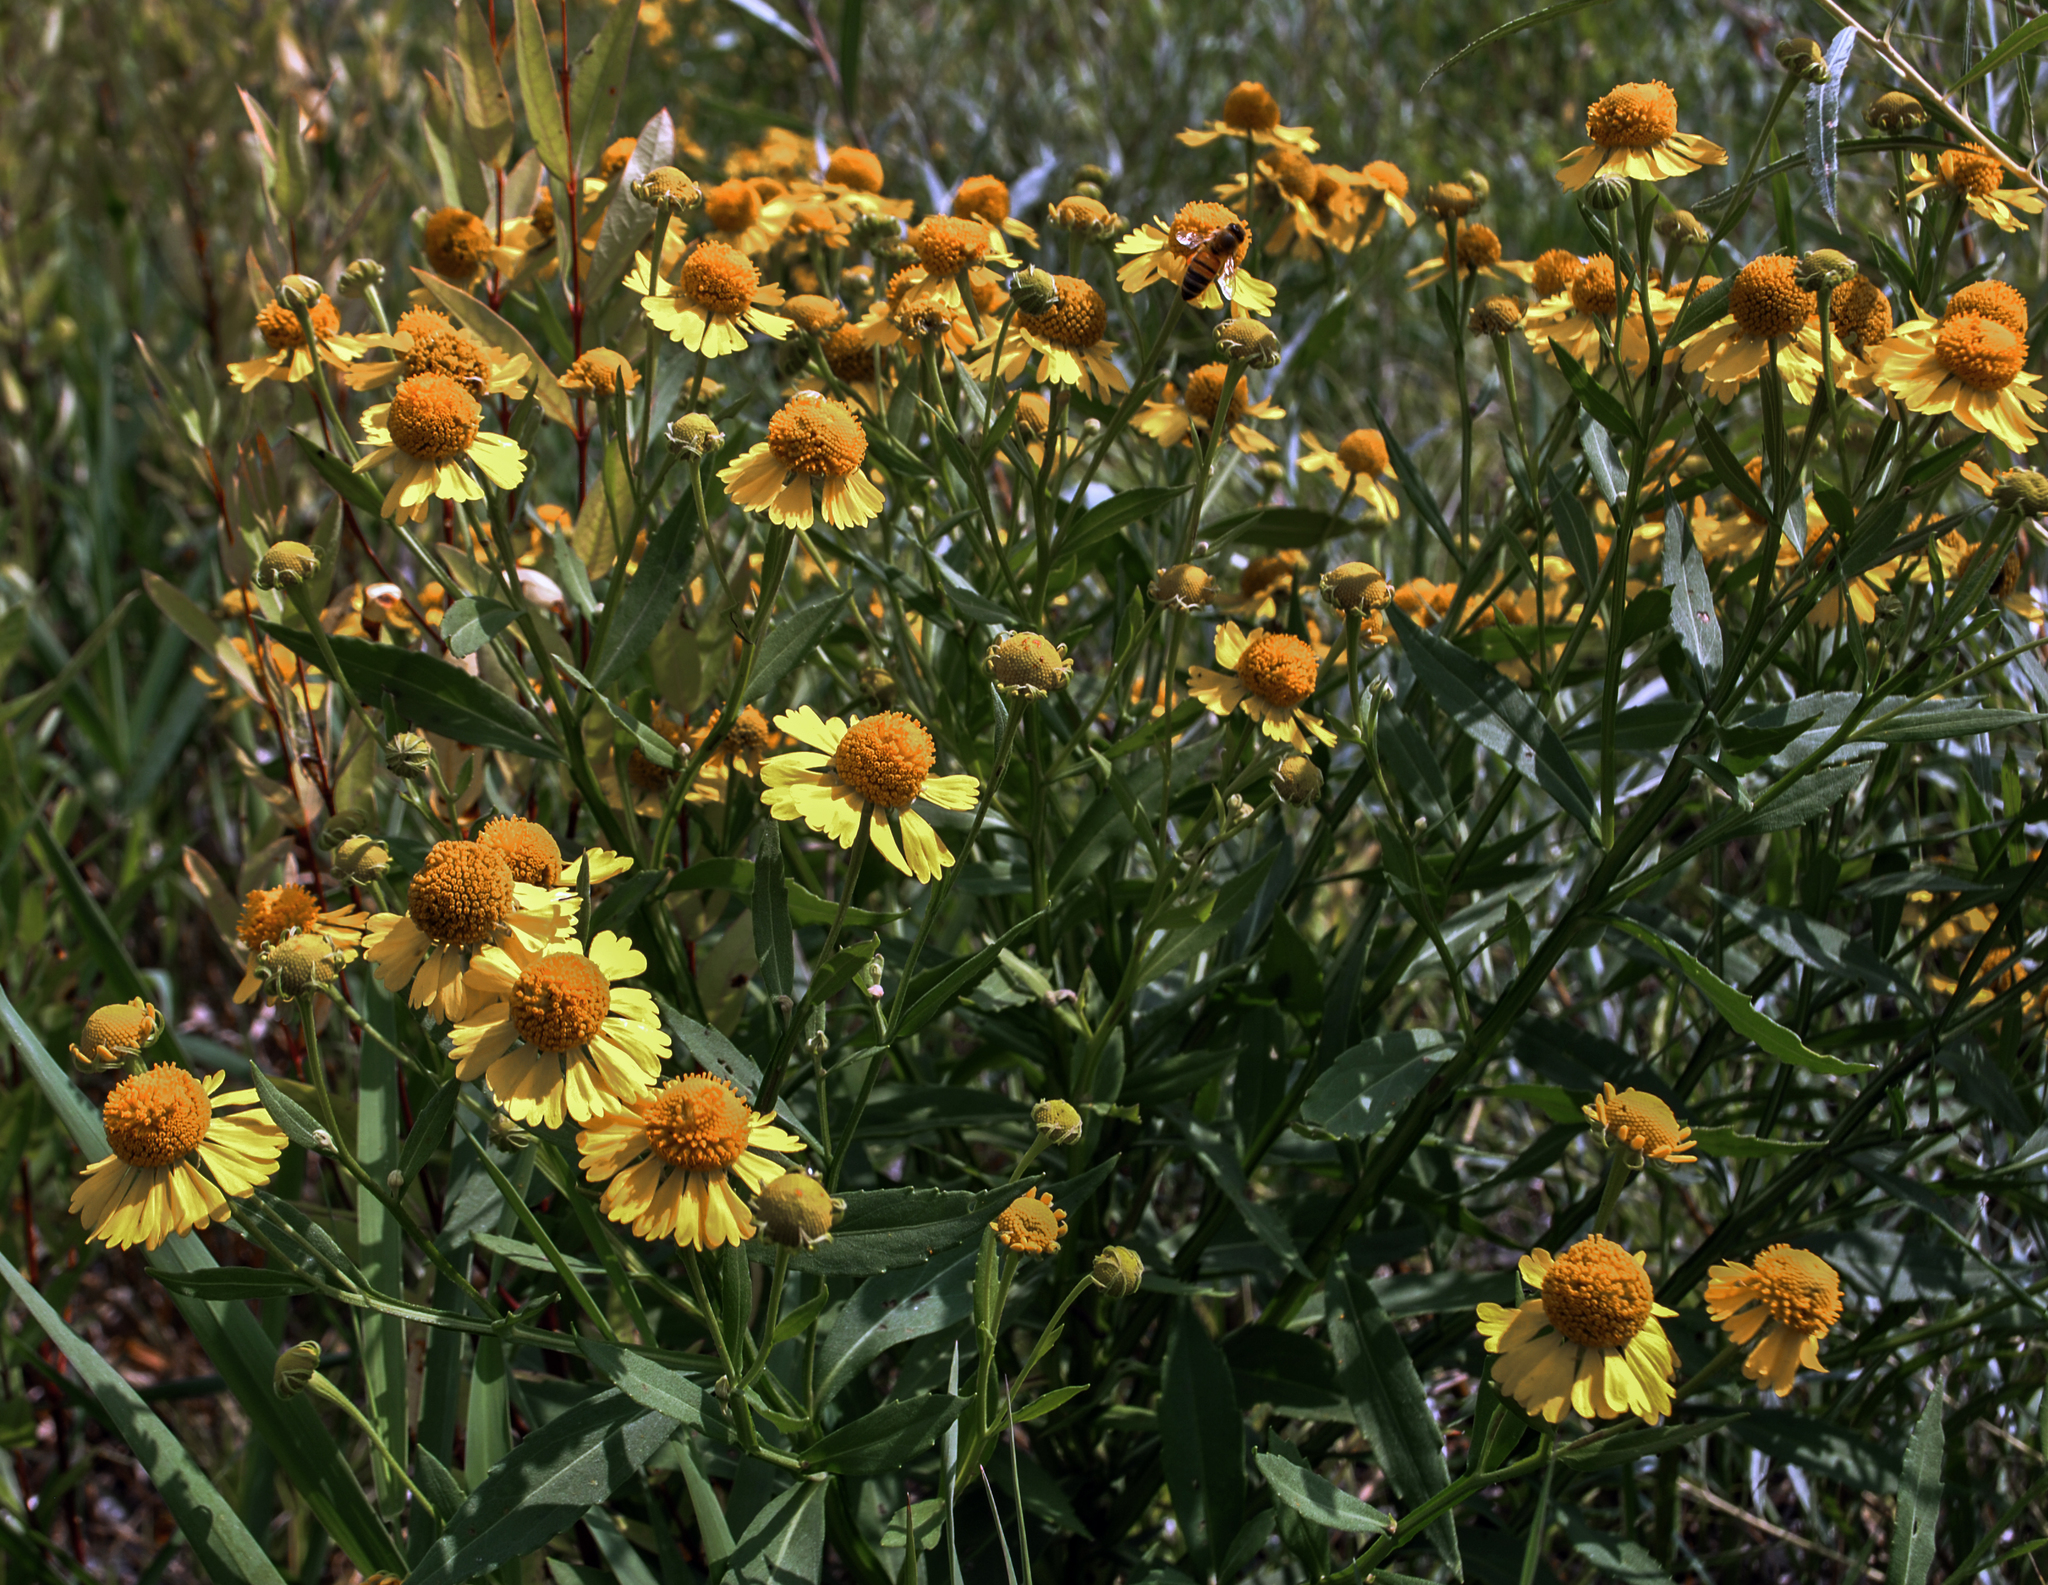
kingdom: Plantae
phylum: Tracheophyta
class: Magnoliopsida
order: Asterales
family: Asteraceae
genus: Helenium
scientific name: Helenium autumnale
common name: Sneezeweed
